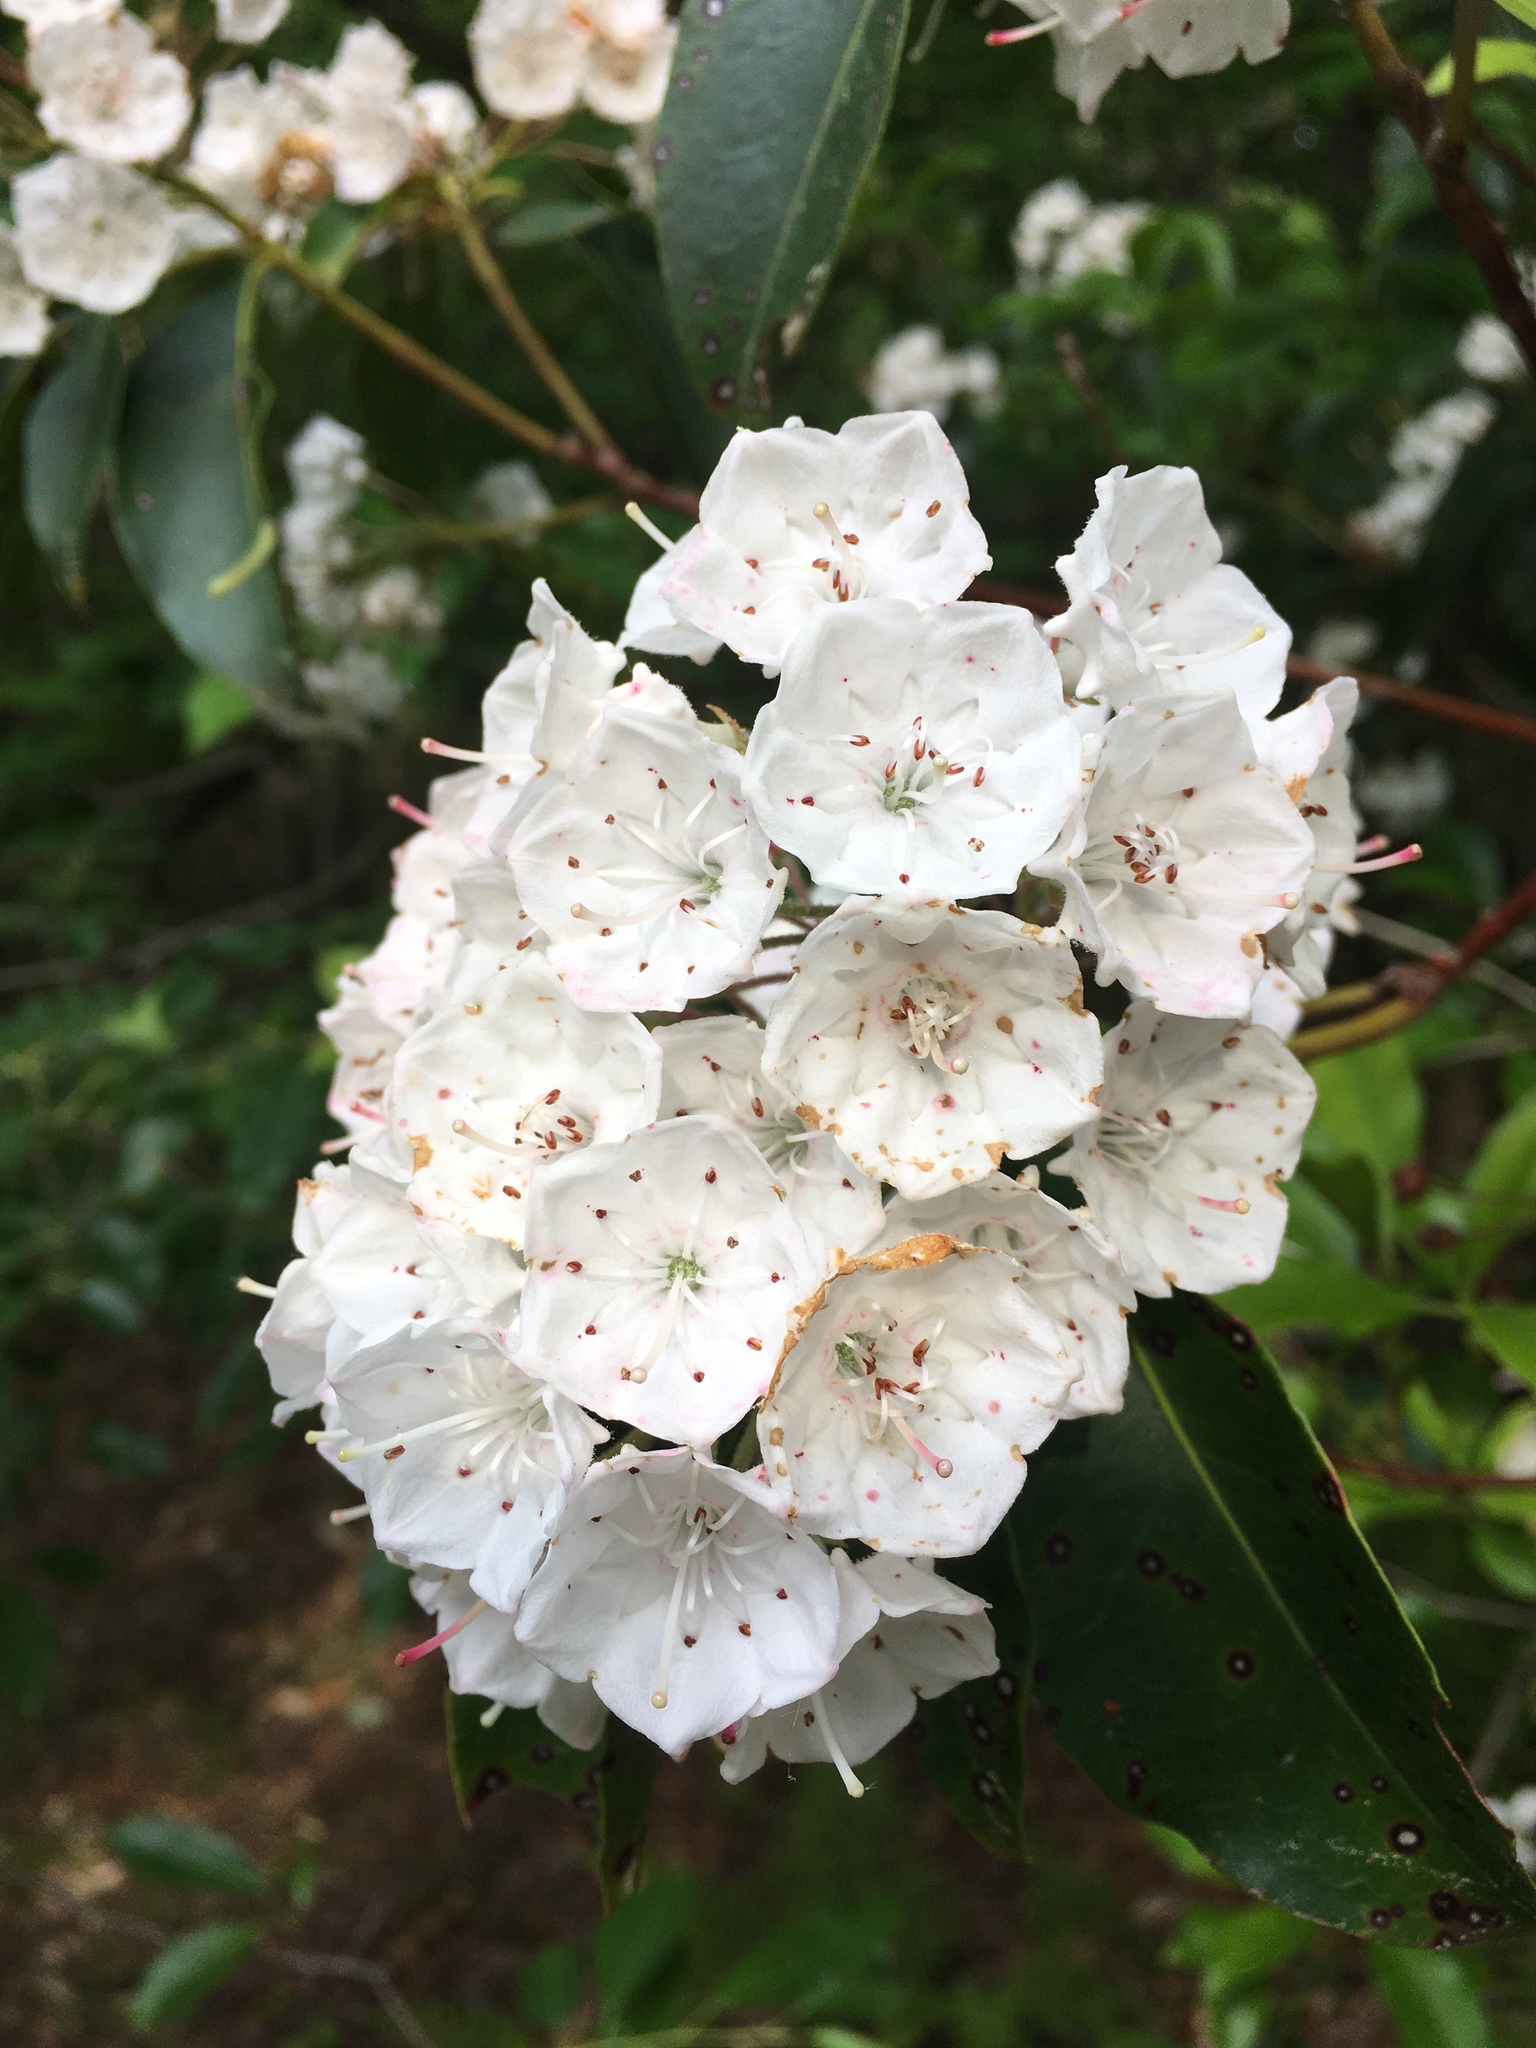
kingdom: Plantae
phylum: Tracheophyta
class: Magnoliopsida
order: Ericales
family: Ericaceae
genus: Kalmia
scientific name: Kalmia latifolia
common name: Mountain-laurel
